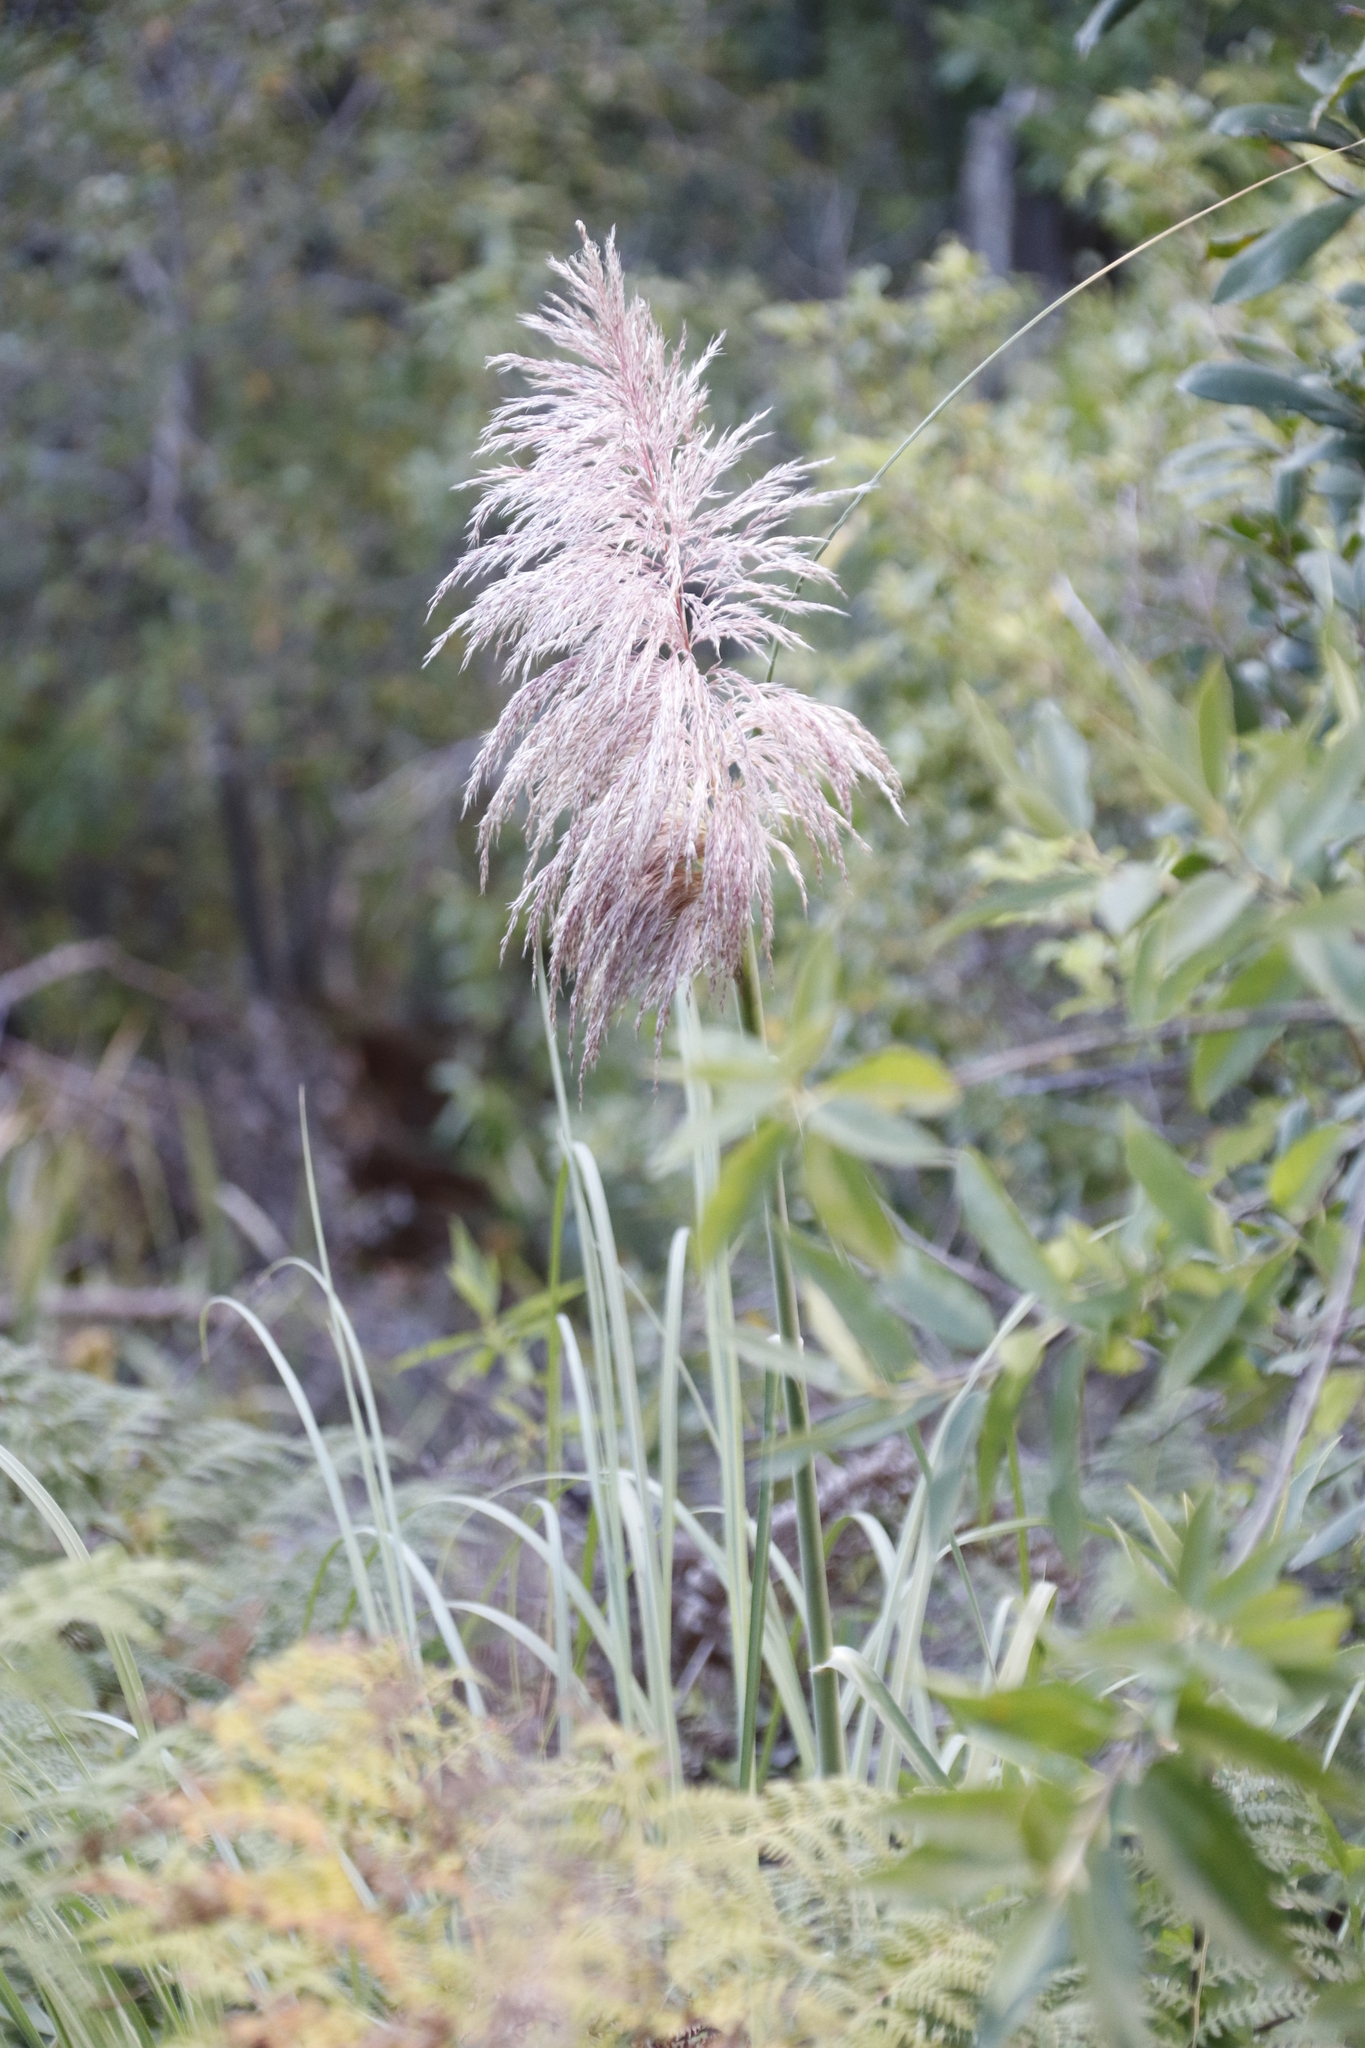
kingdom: Plantae
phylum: Tracheophyta
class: Liliopsida
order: Poales
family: Poaceae
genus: Cortaderia
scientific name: Cortaderia selloana
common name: Uruguayan pampas grass
